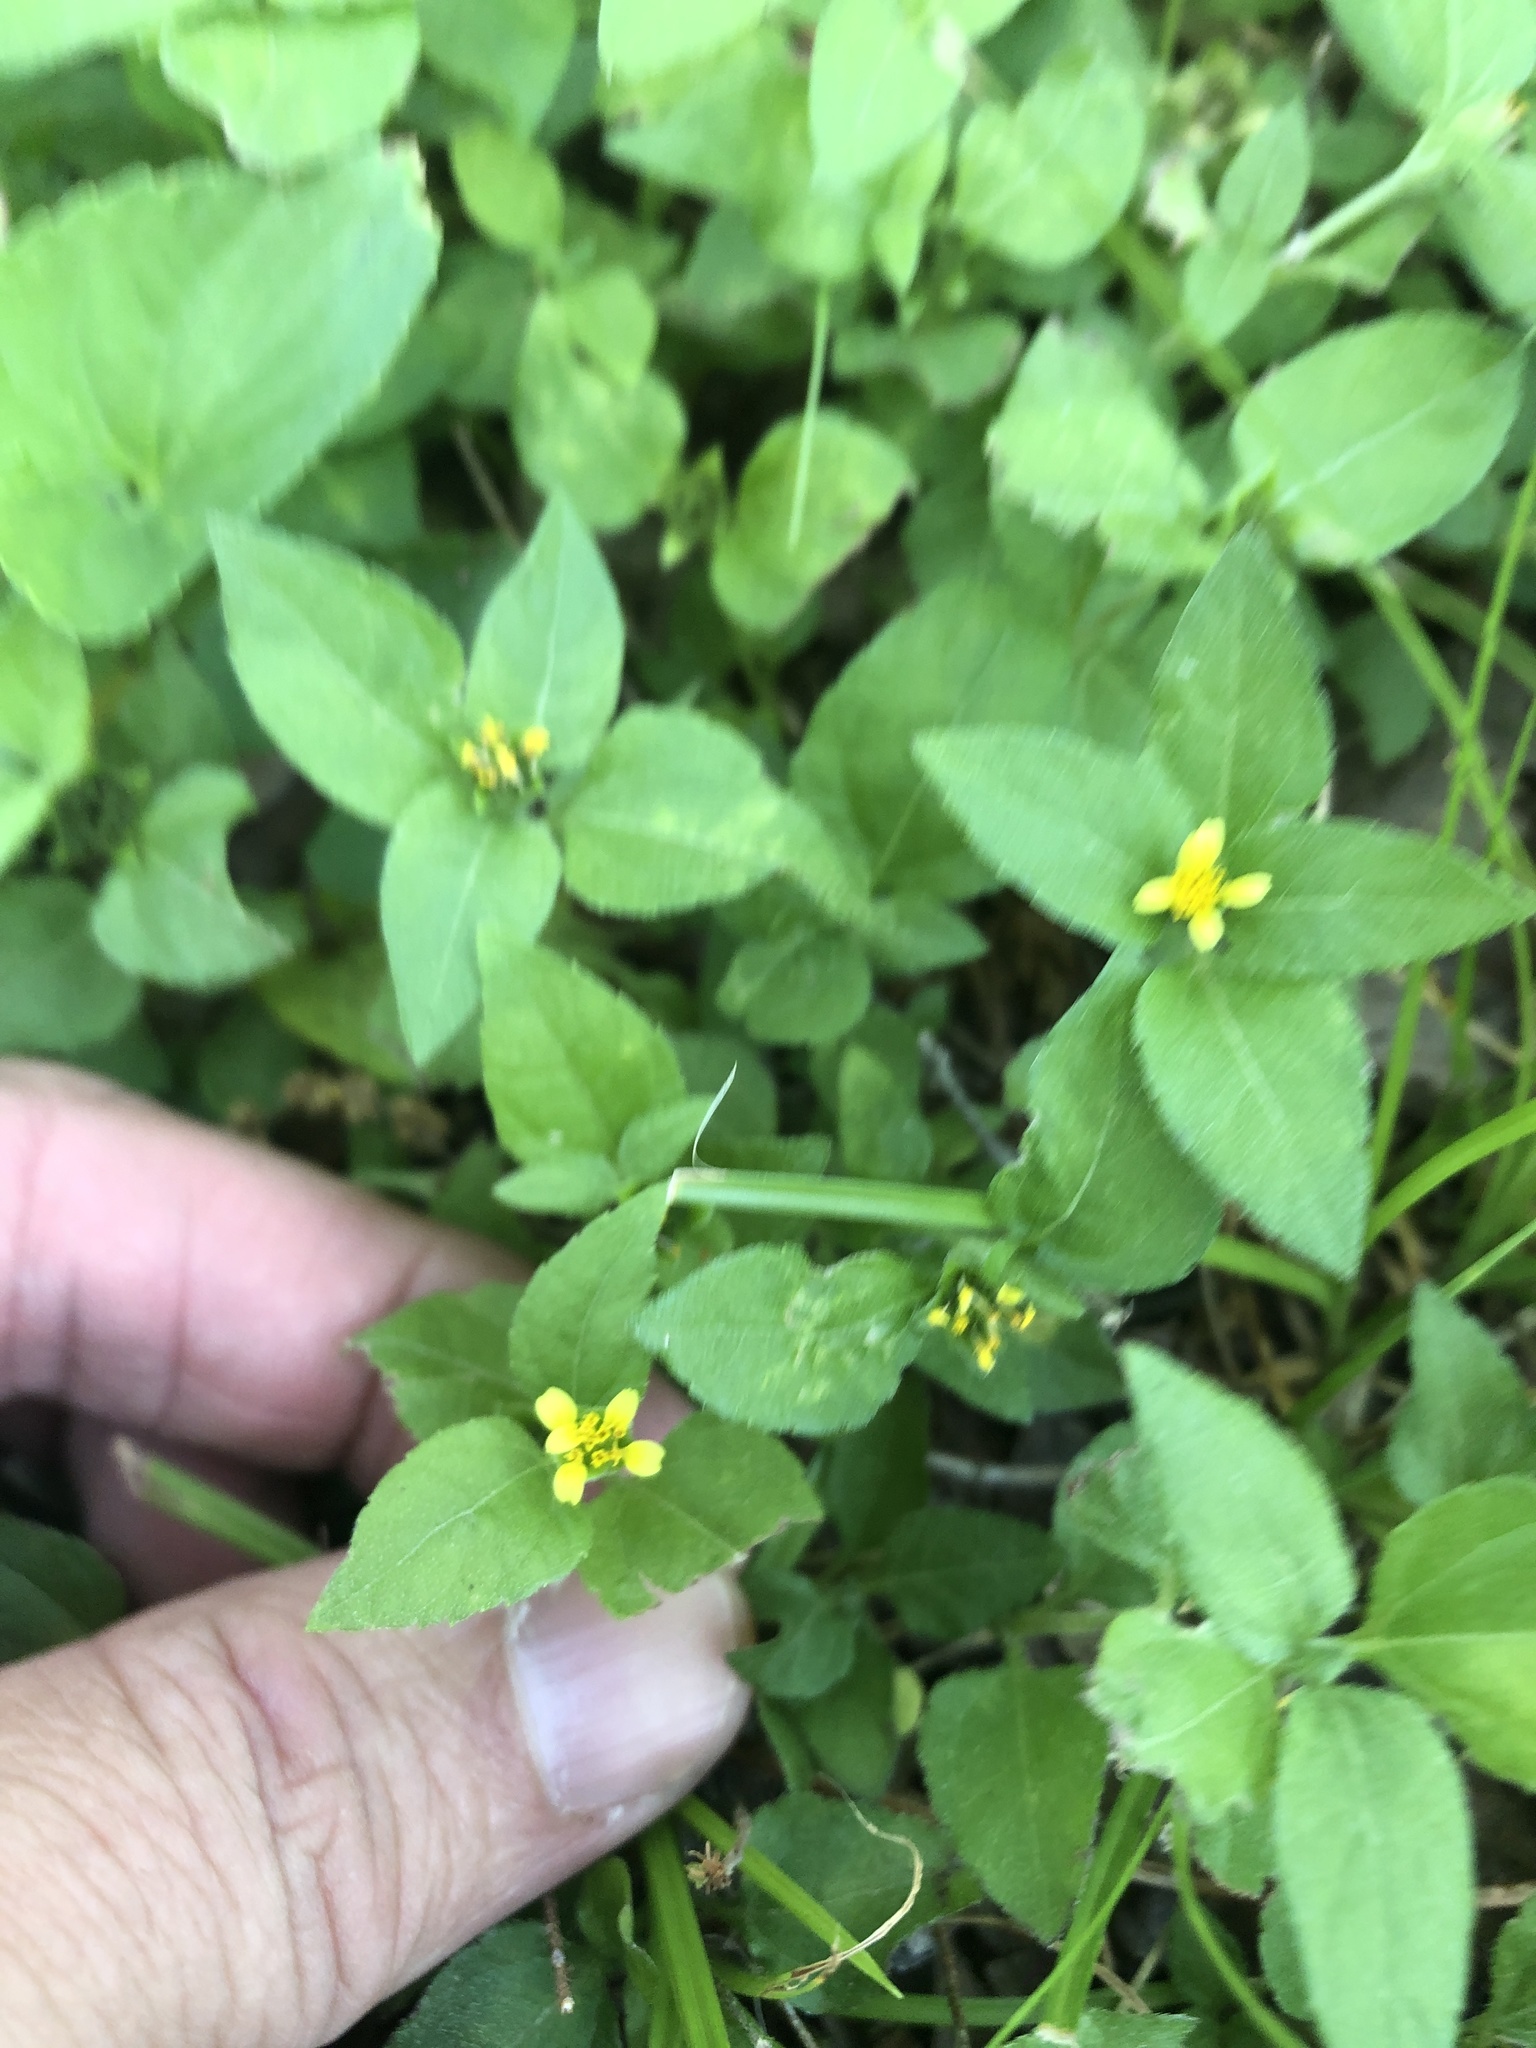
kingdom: Plantae
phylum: Tracheophyta
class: Magnoliopsida
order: Asterales
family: Asteraceae
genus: Calyptocarpus
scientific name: Calyptocarpus vialis
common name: Straggler daisy
